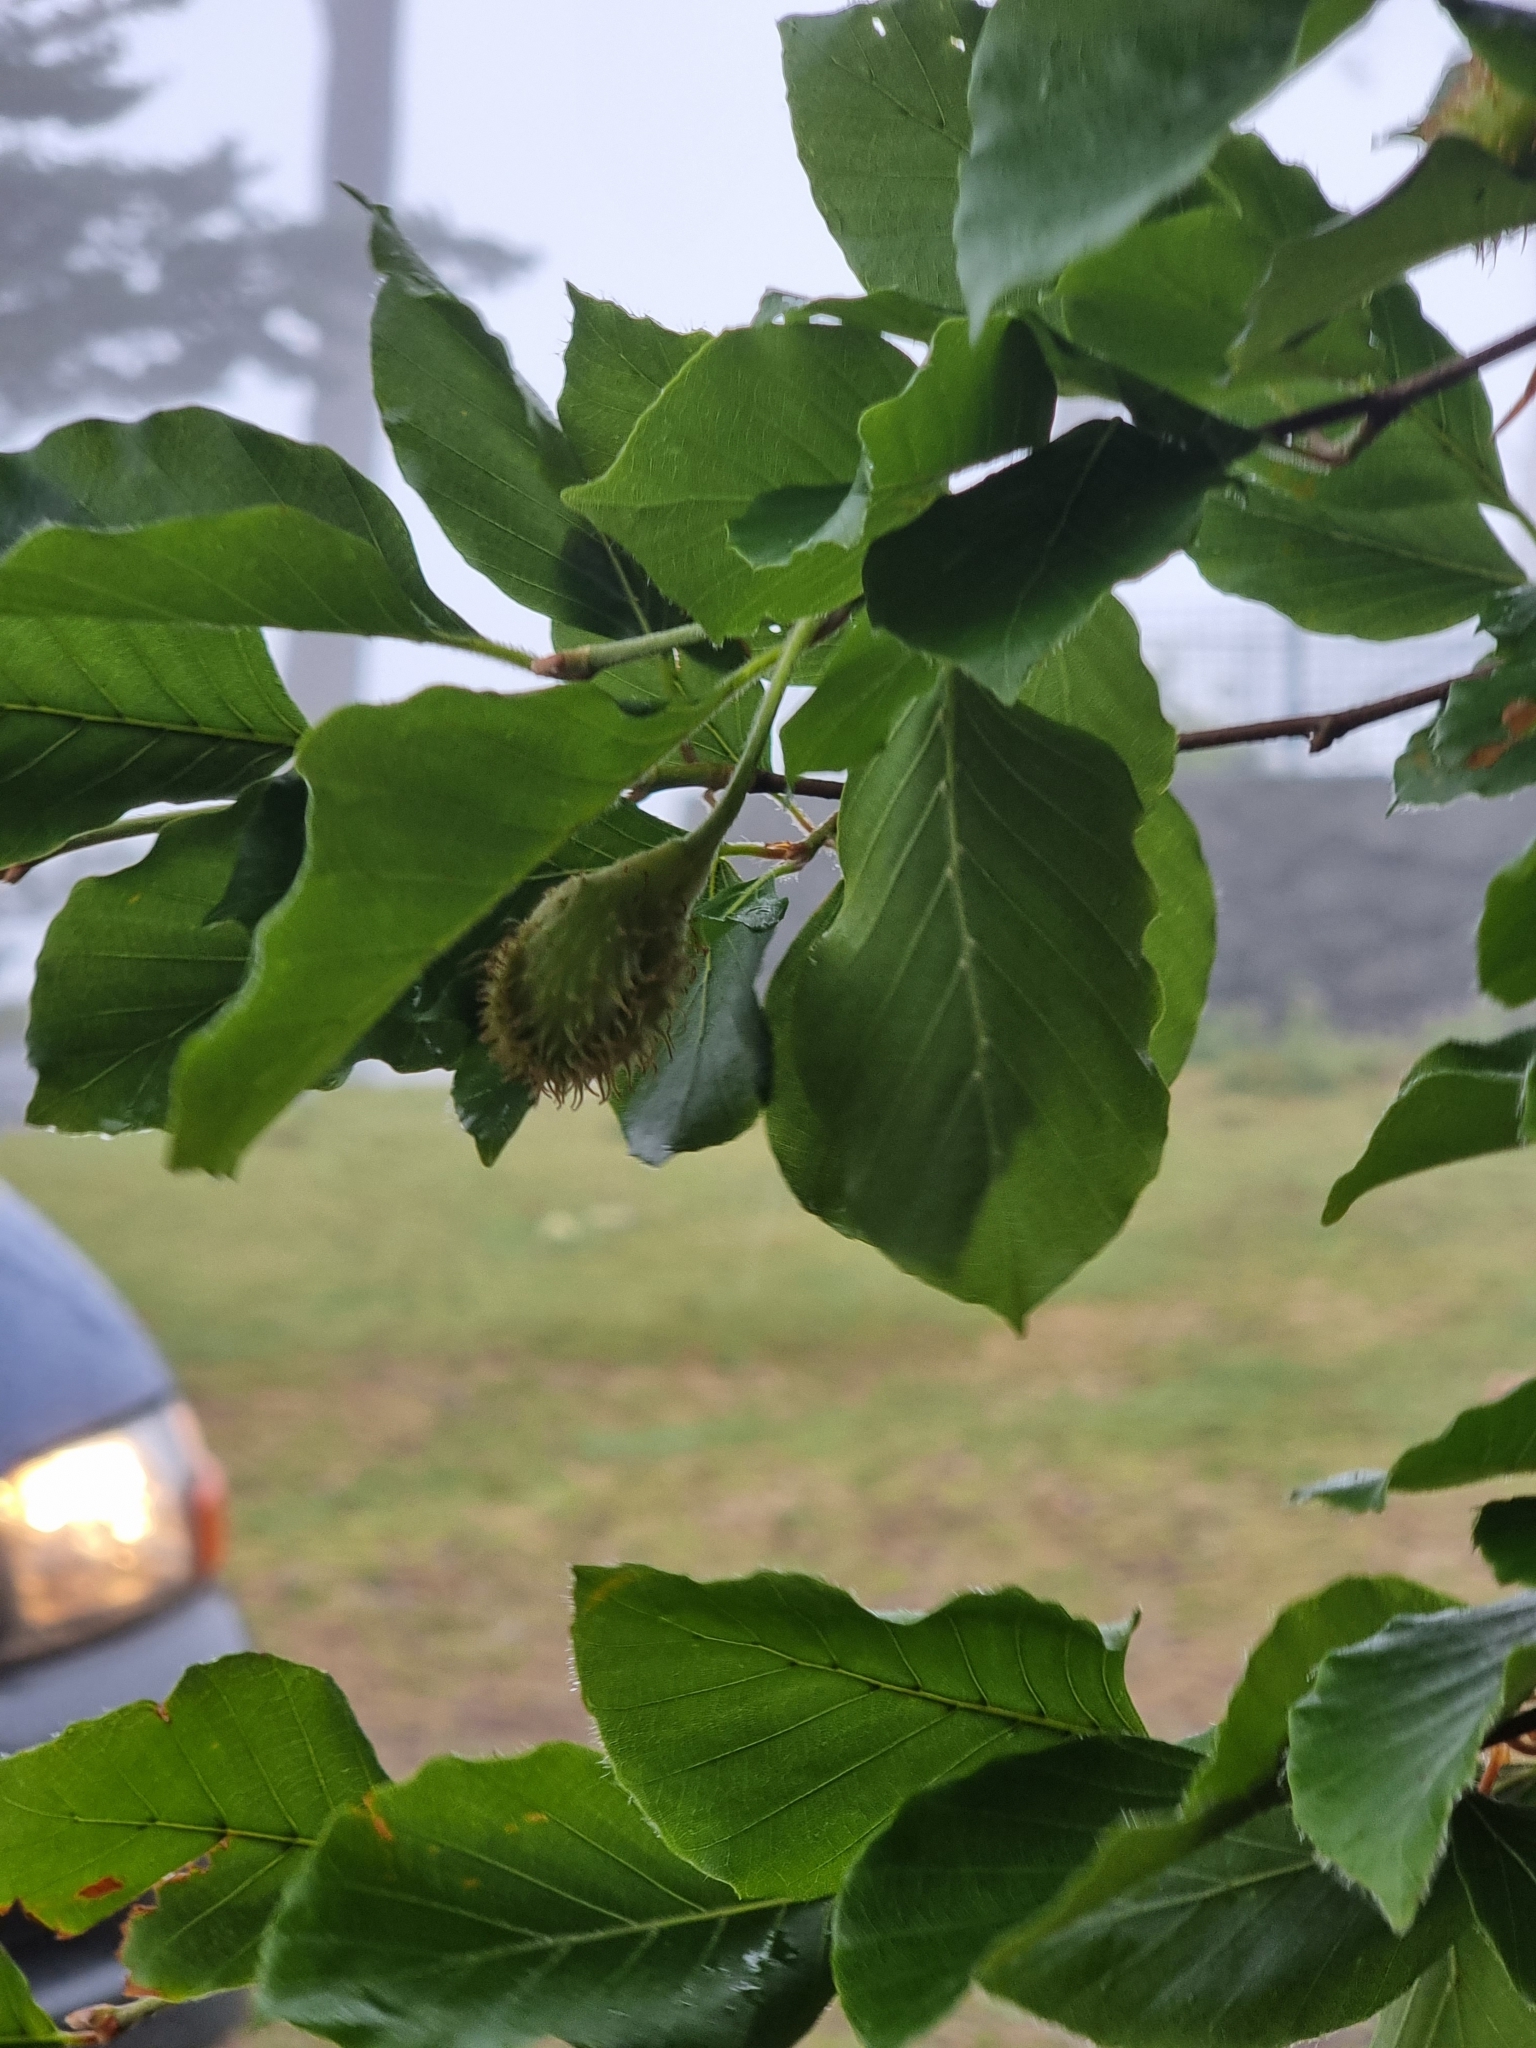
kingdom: Plantae
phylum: Tracheophyta
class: Magnoliopsida
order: Fagales
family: Fagaceae
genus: Fagus
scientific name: Fagus sylvatica
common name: Beech
